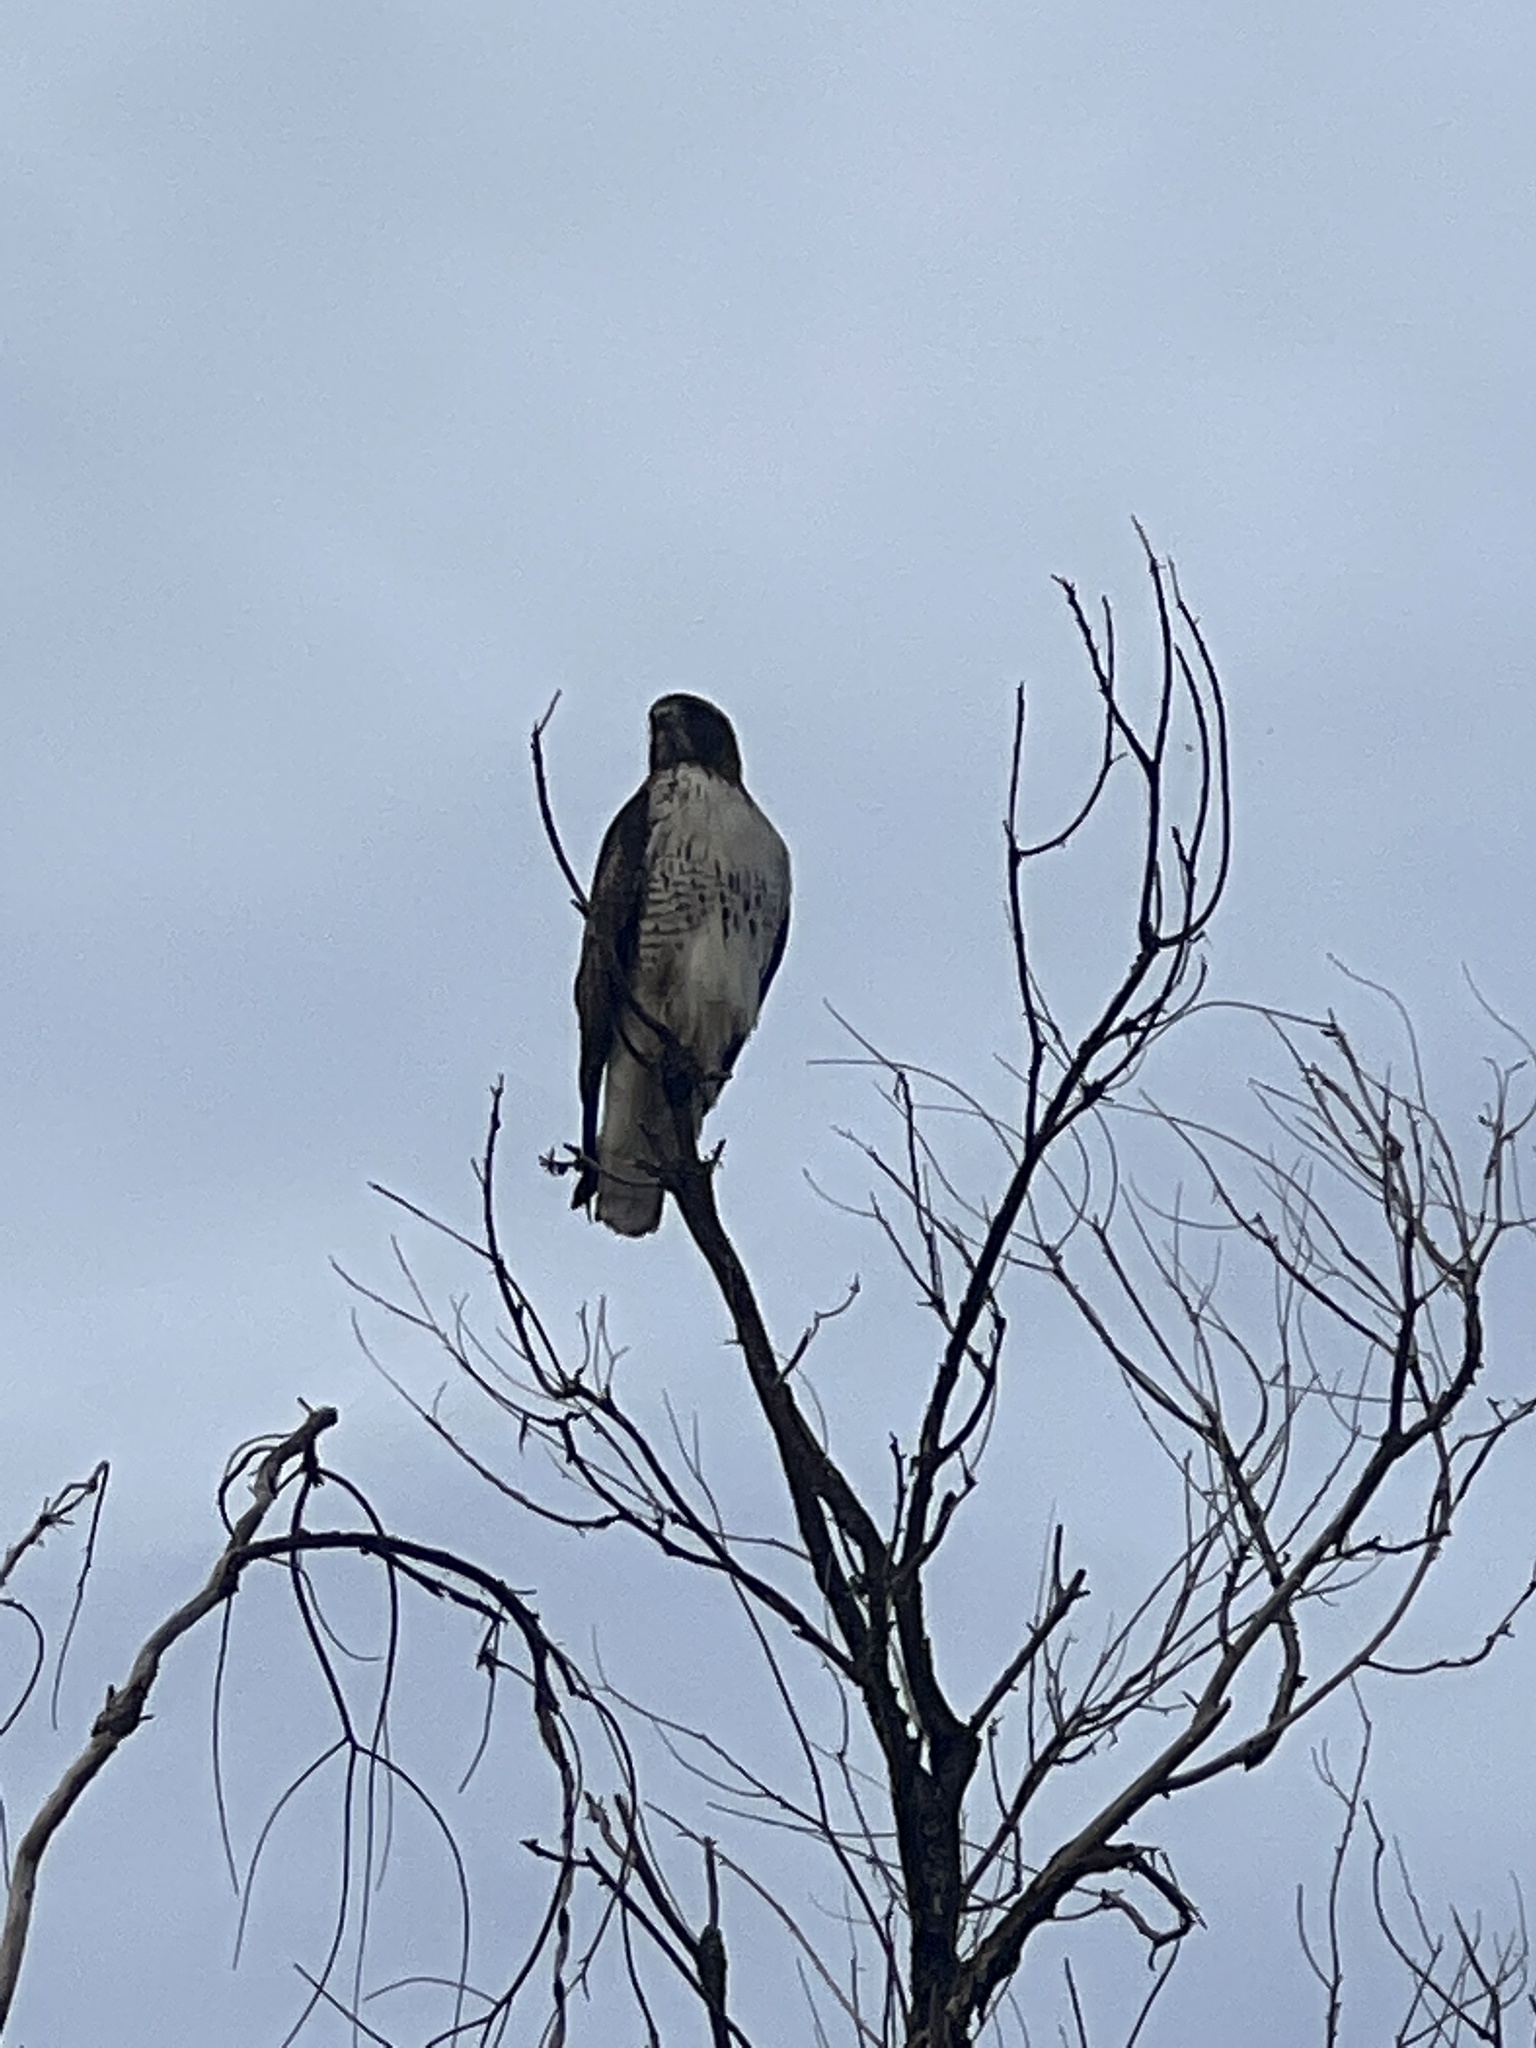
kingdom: Animalia
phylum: Chordata
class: Aves
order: Accipitriformes
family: Accipitridae
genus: Buteo
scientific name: Buteo jamaicensis
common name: Red-tailed hawk
